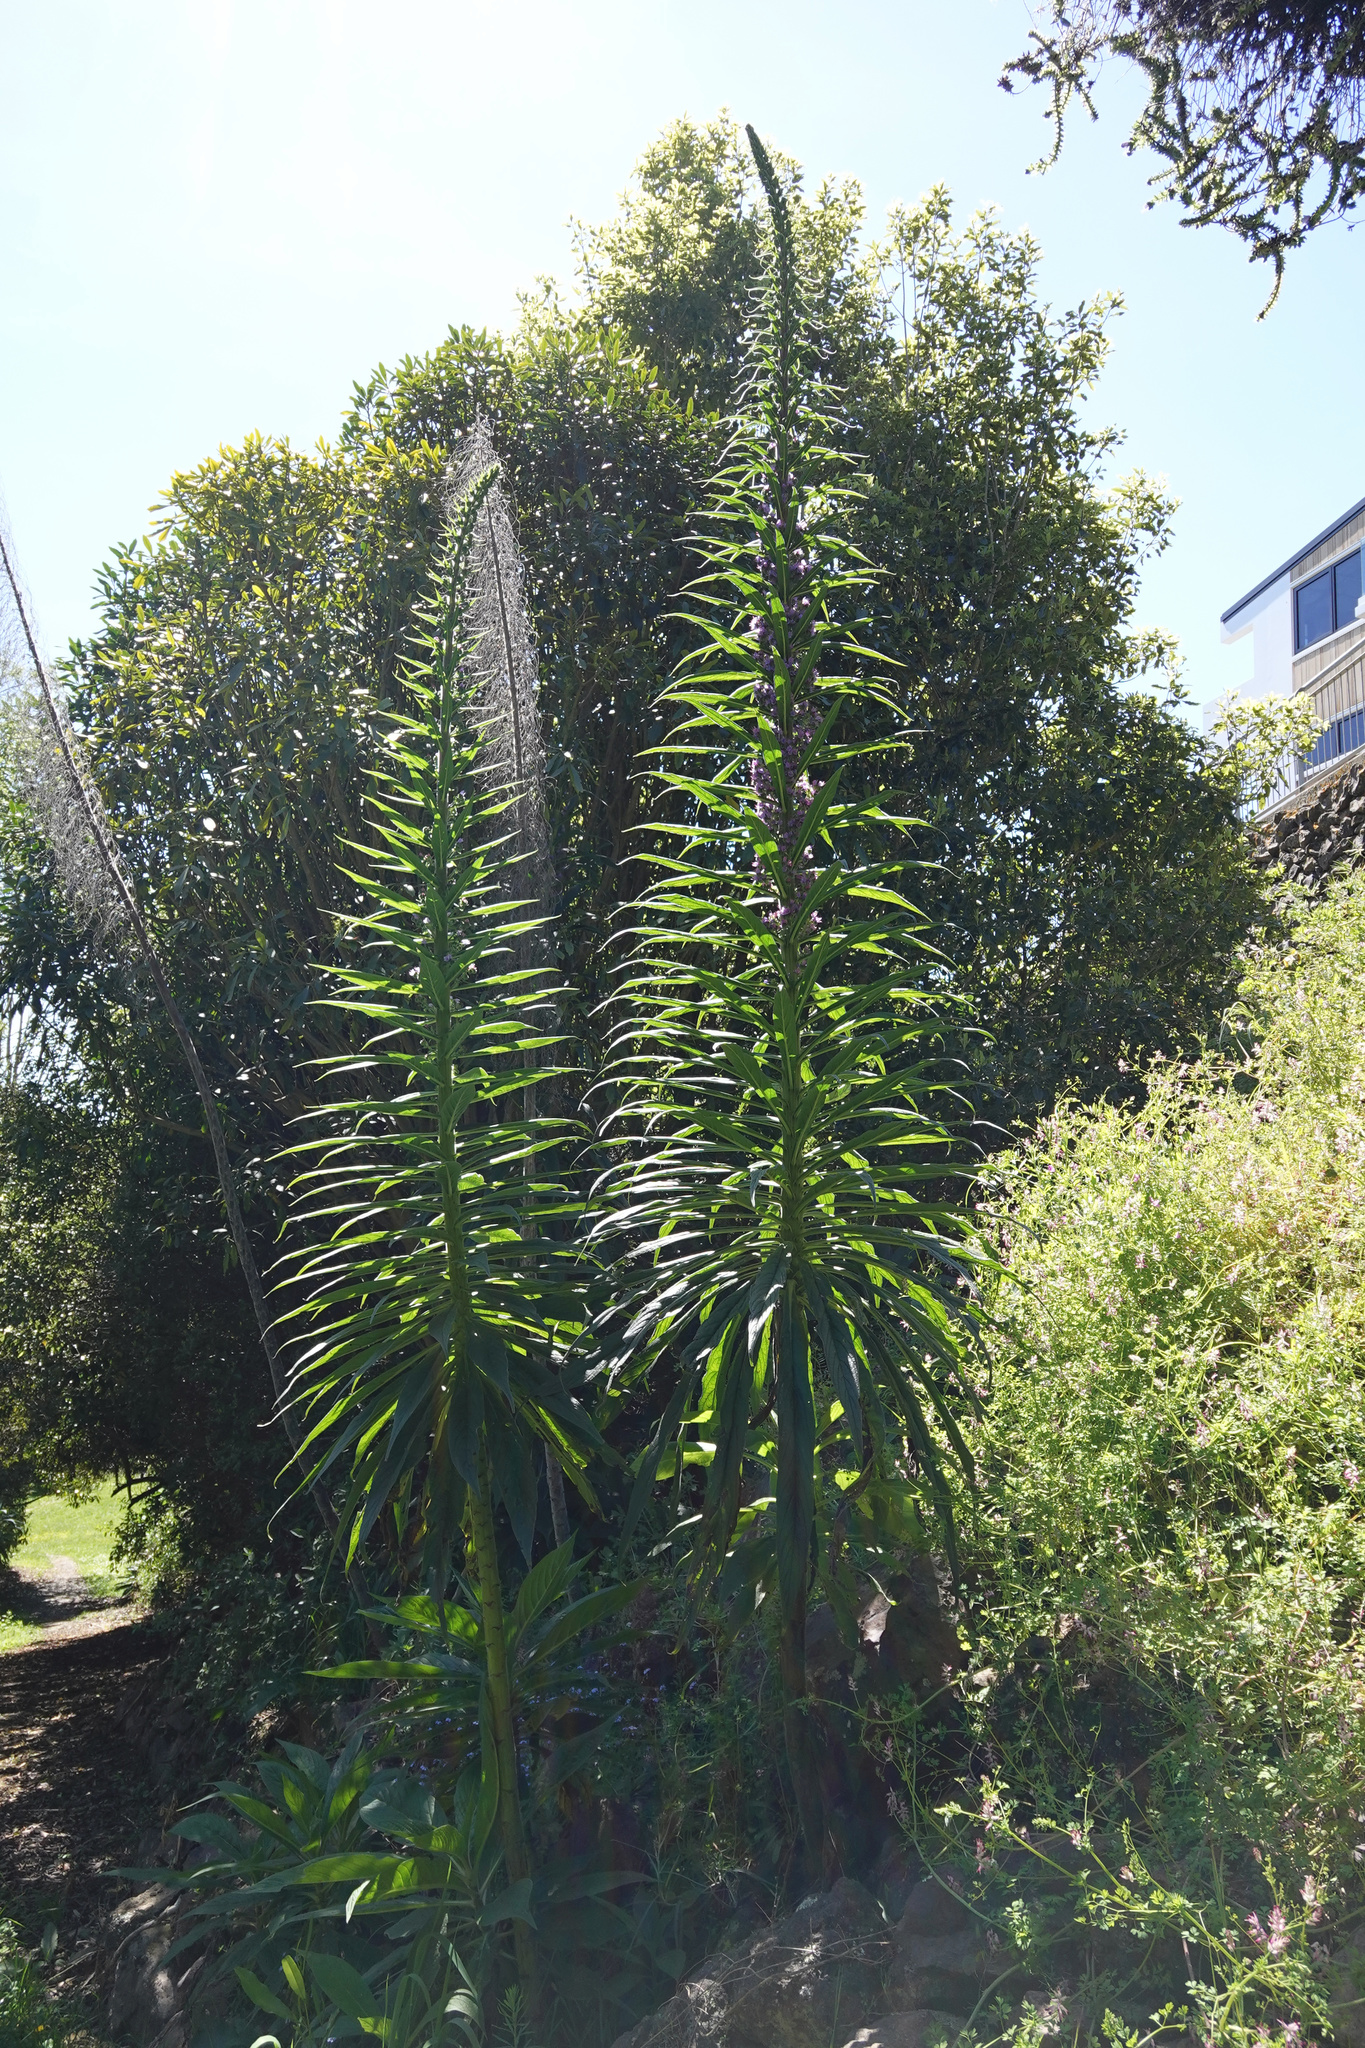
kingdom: Plantae
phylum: Tracheophyta
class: Magnoliopsida
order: Boraginales
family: Boraginaceae
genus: Echium
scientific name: Echium pininana
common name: Giant viper's-bugloss
